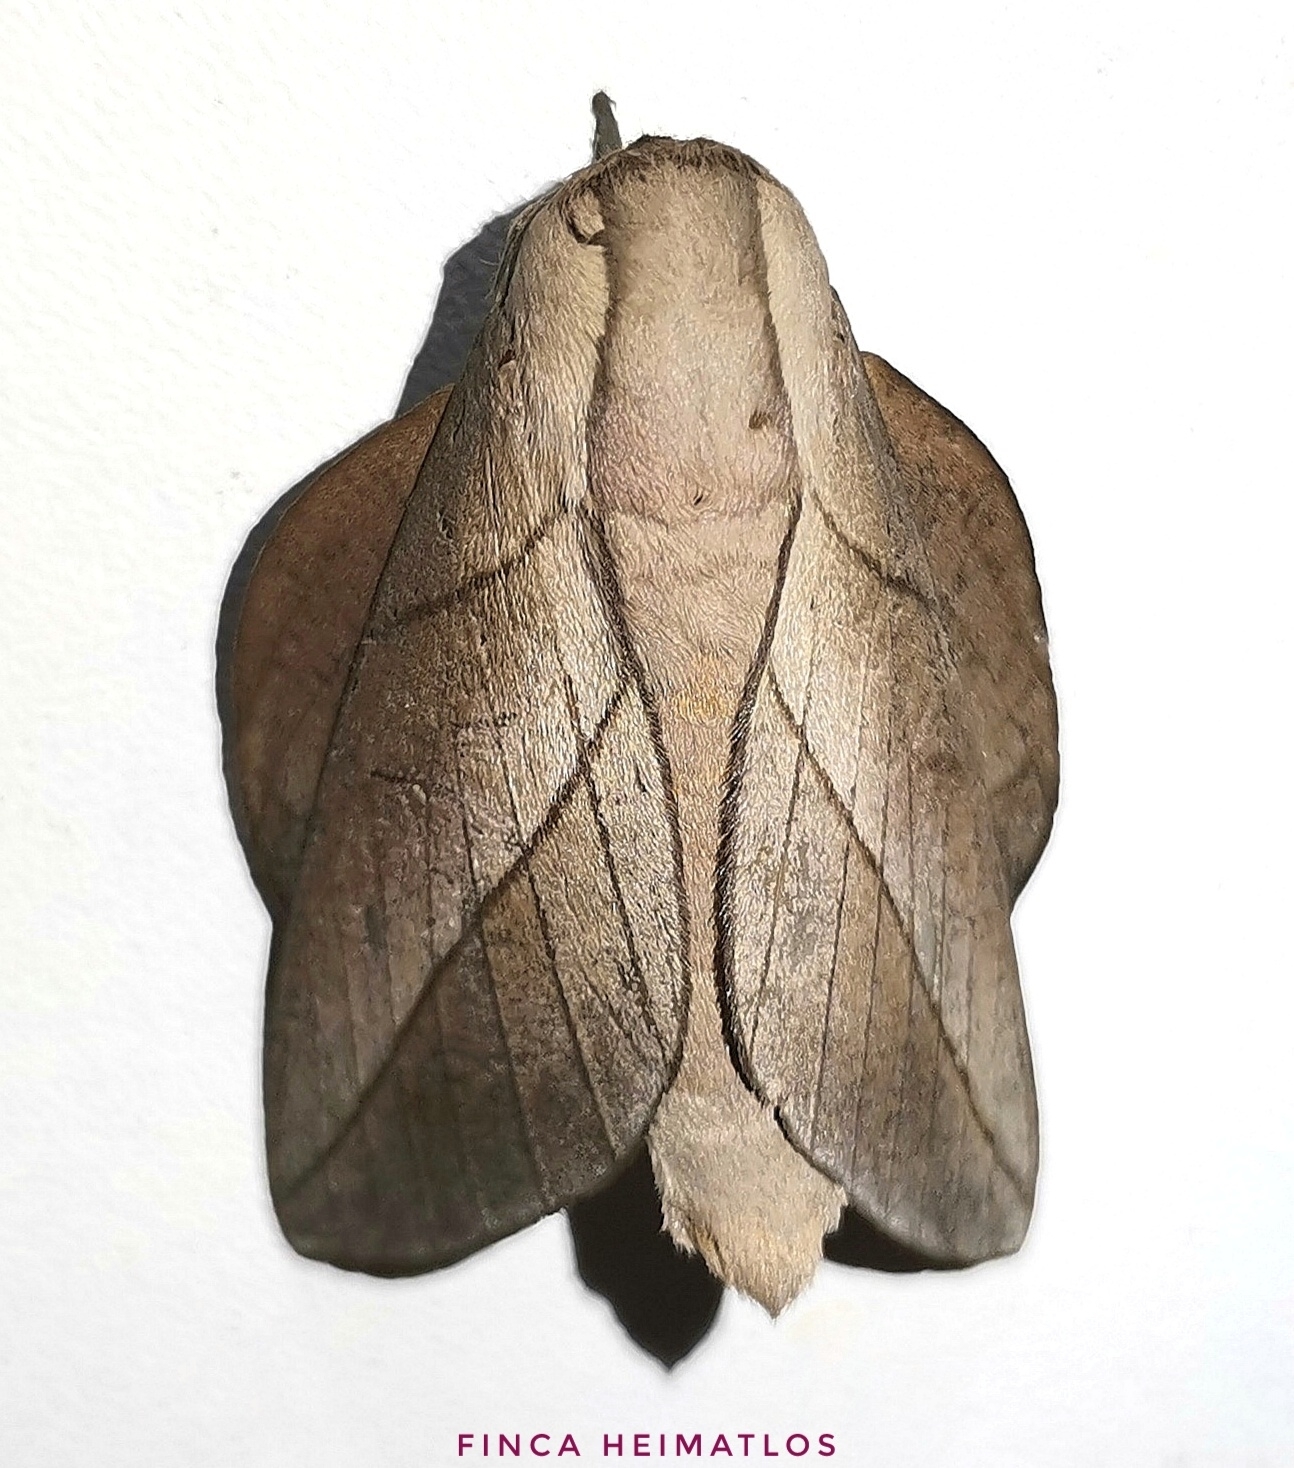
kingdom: Animalia
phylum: Arthropoda
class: Insecta
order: Lepidoptera
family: Saturniidae
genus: Citioica
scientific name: Citioica anthonilis
